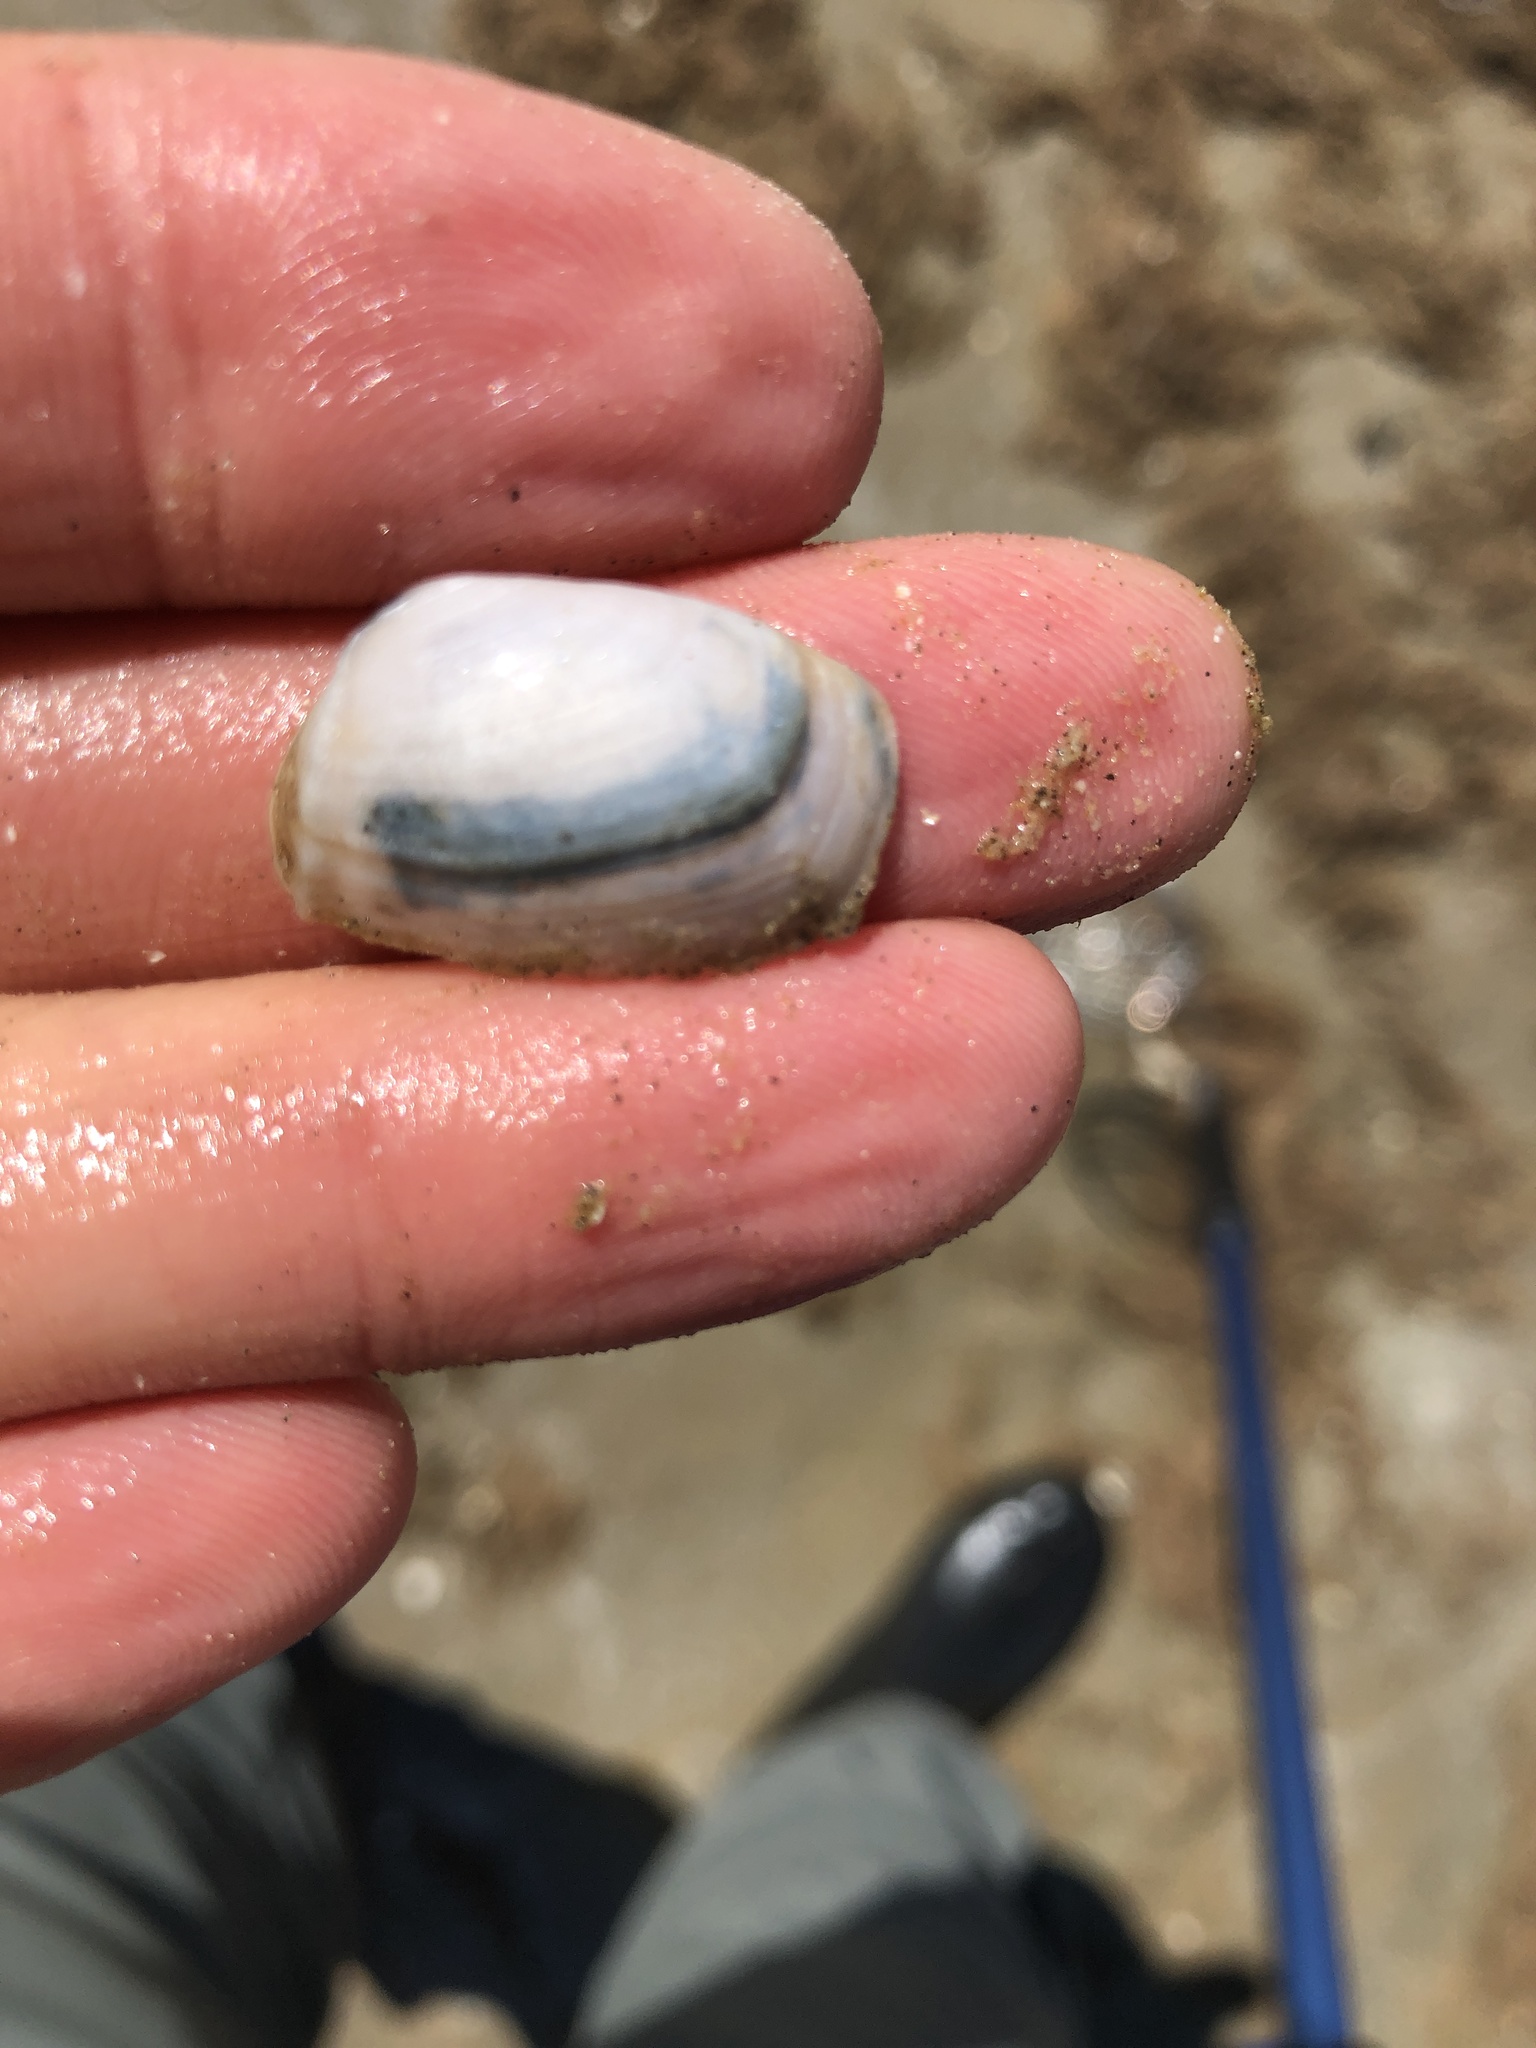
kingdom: Animalia
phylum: Mollusca
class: Bivalvia
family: Periplomatidae
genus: Periploma
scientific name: Periploma inequale
